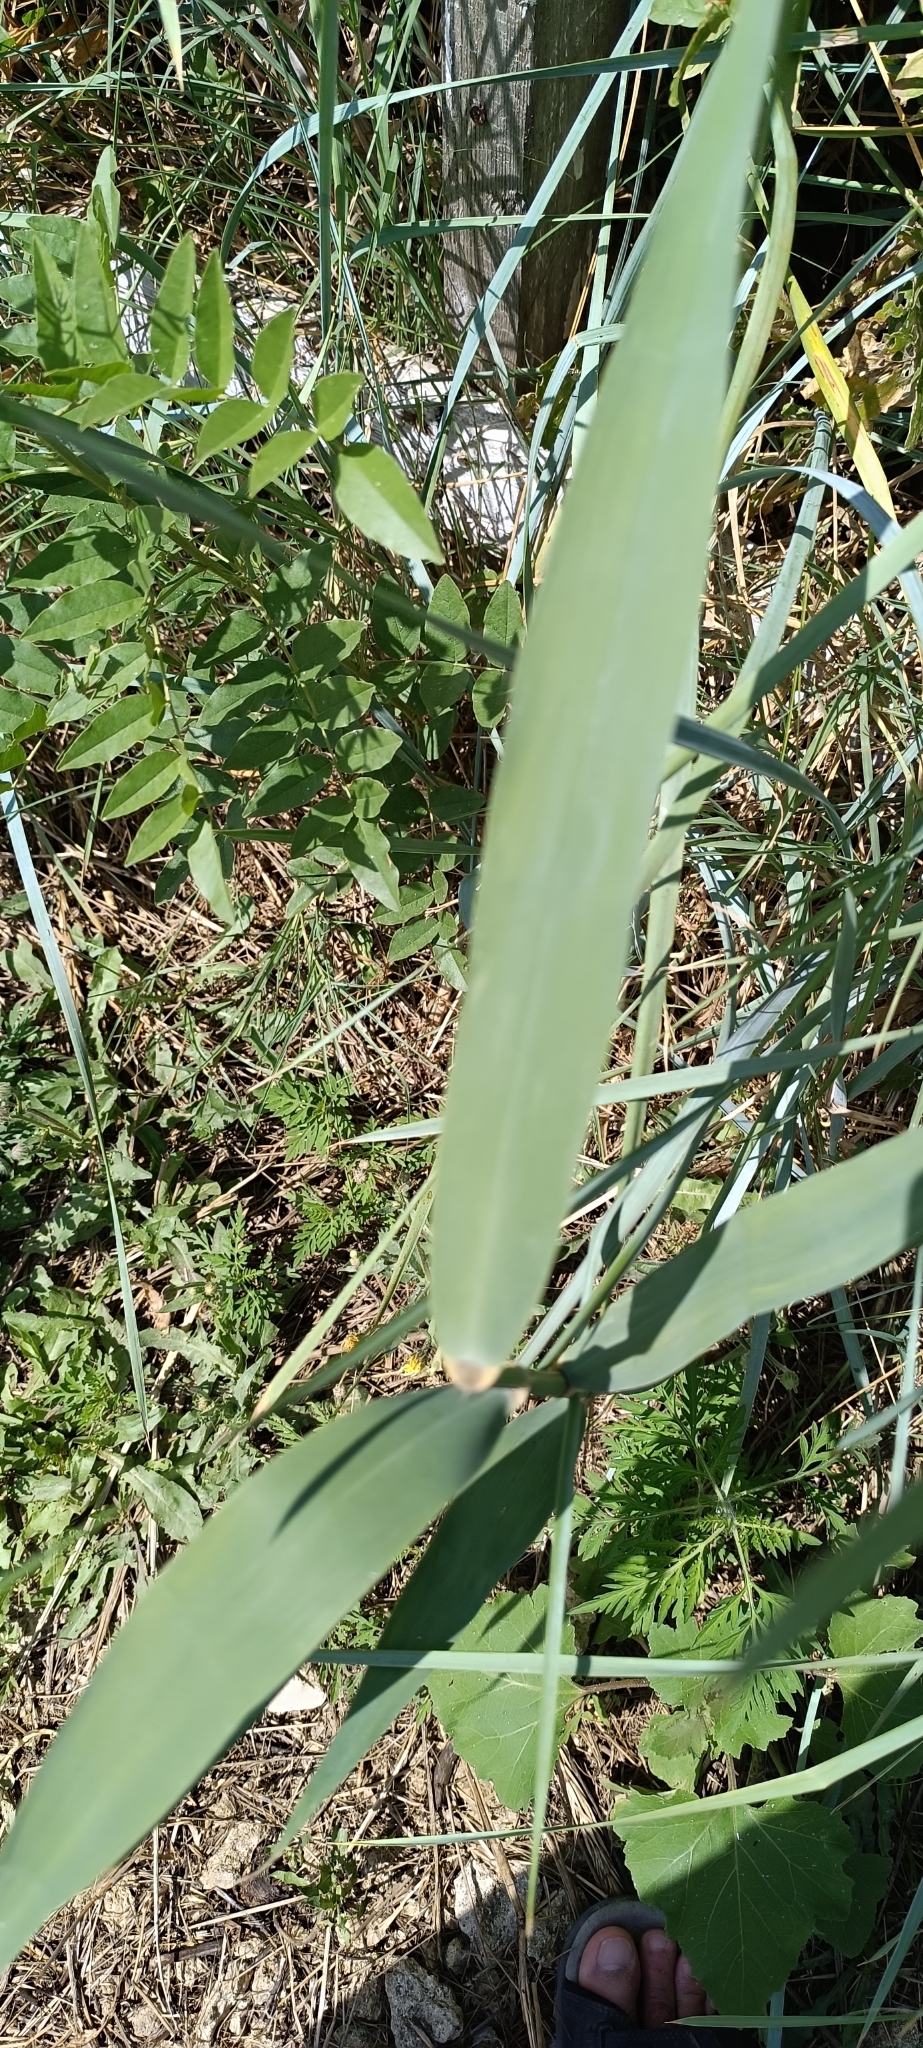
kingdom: Plantae
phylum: Tracheophyta
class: Liliopsida
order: Poales
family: Poaceae
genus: Phragmites
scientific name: Phragmites australis
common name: Common reed
